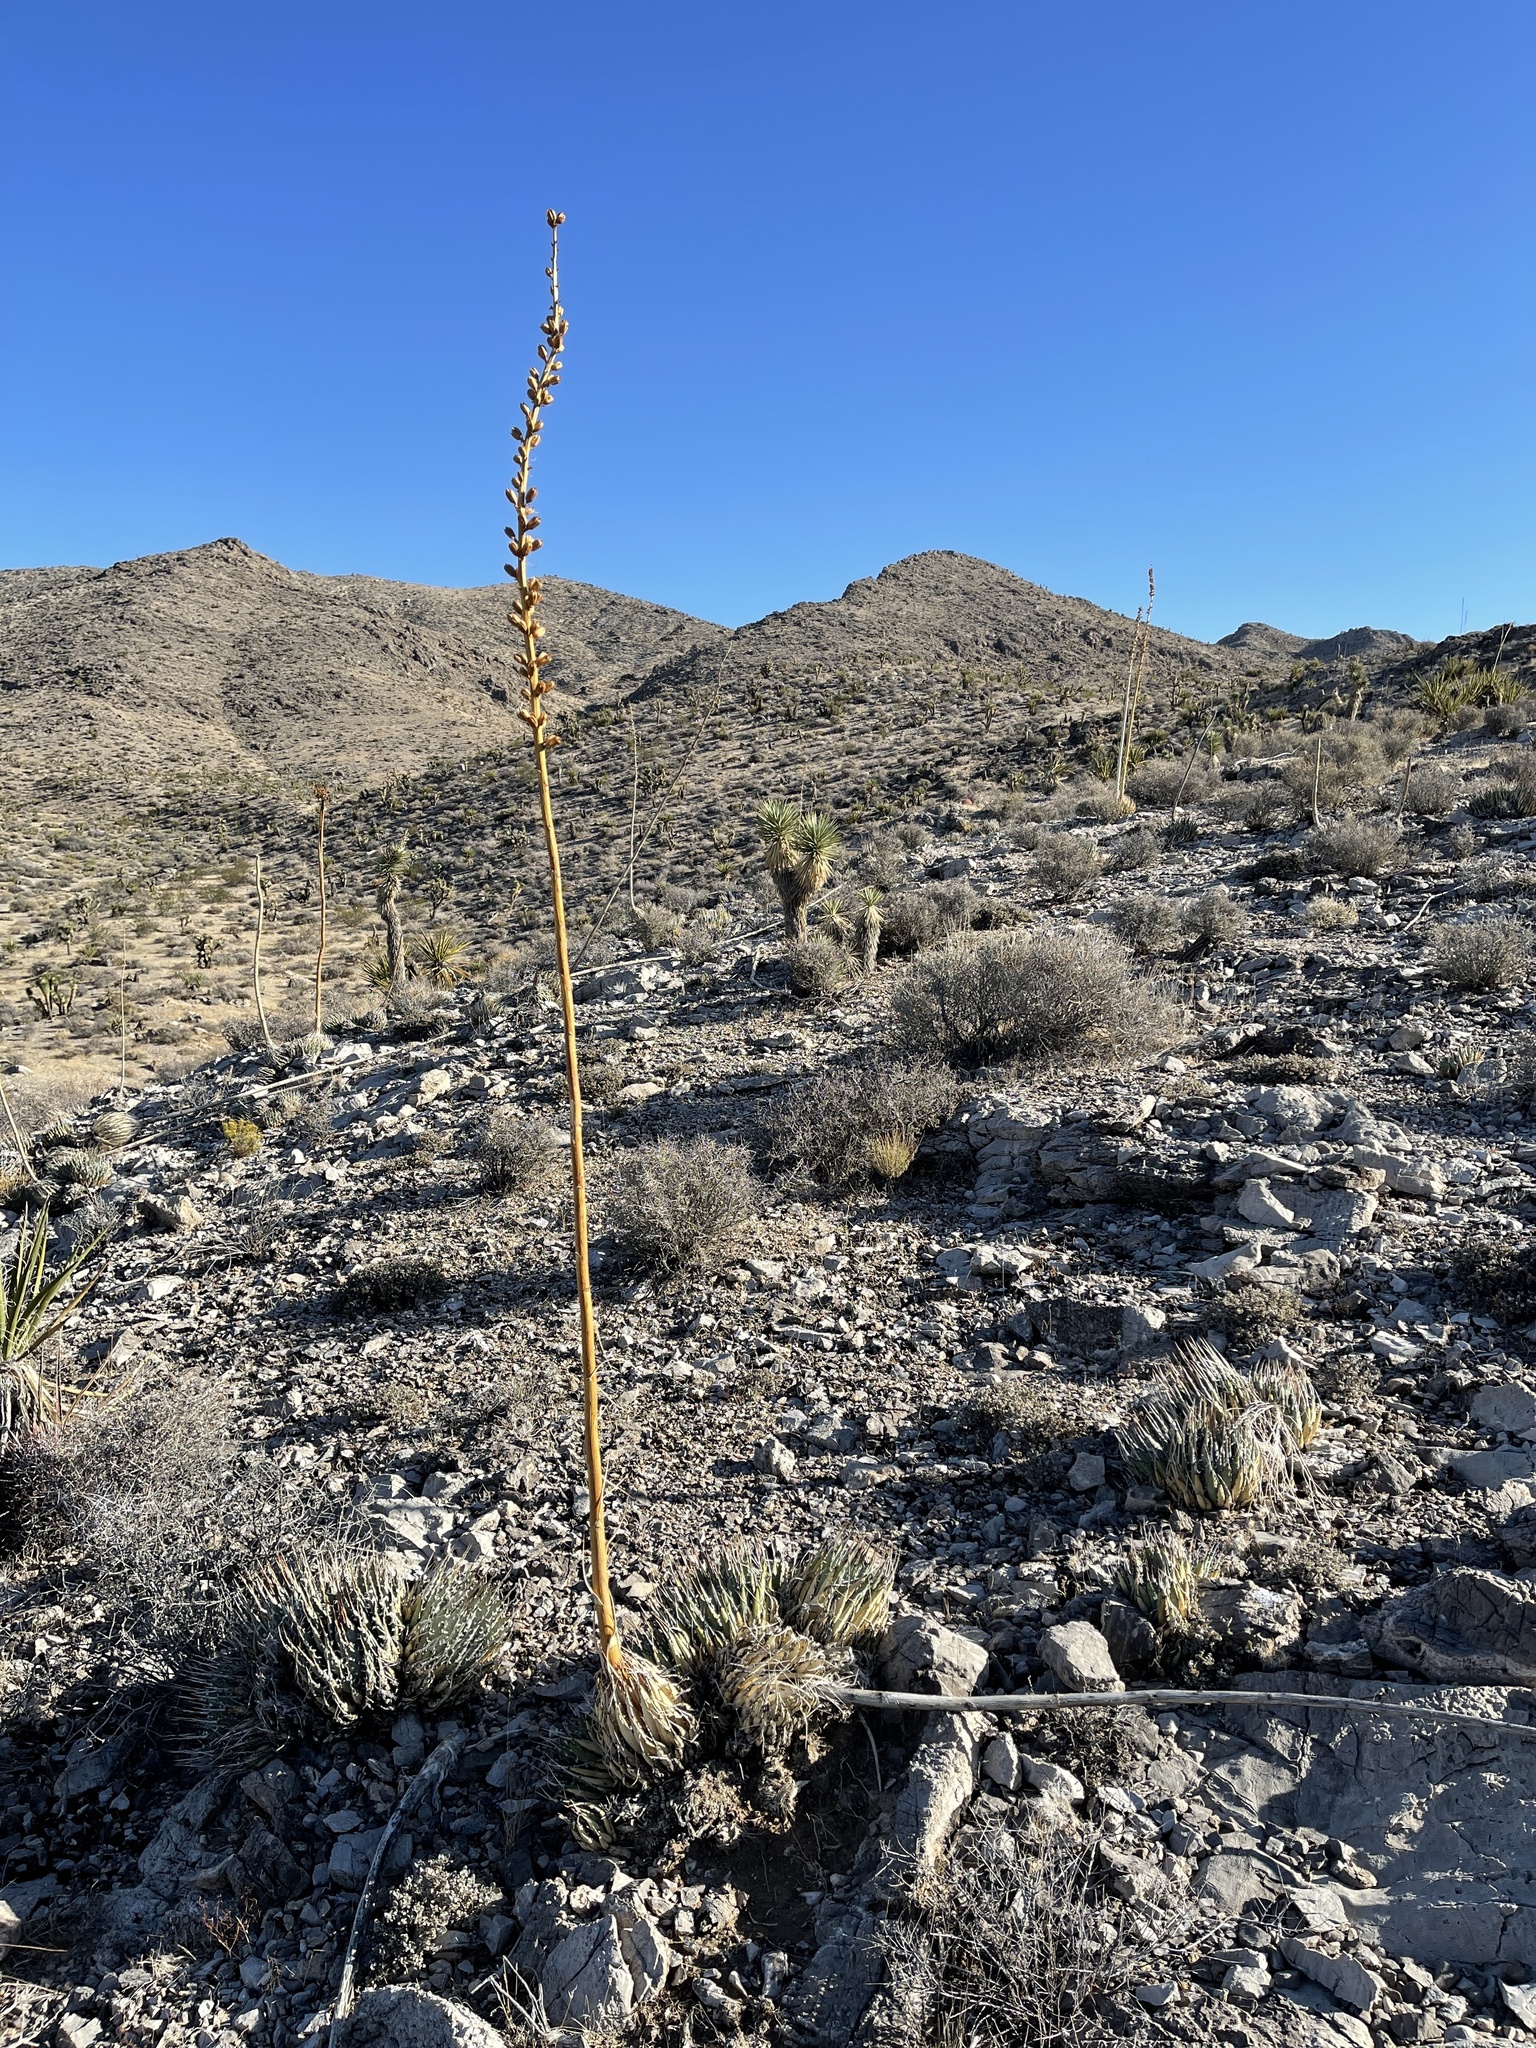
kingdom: Plantae
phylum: Tracheophyta
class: Liliopsida
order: Asparagales
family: Asparagaceae
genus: Agave
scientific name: Agave utahensis
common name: Utah agave
